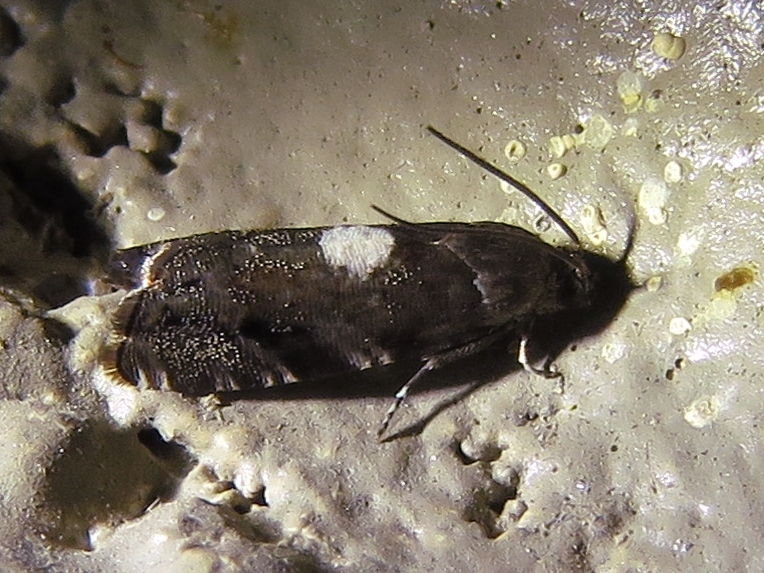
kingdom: Animalia
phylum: Arthropoda
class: Insecta
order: Lepidoptera
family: Tortricidae
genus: Cydia
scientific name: Cydia albimaculana
